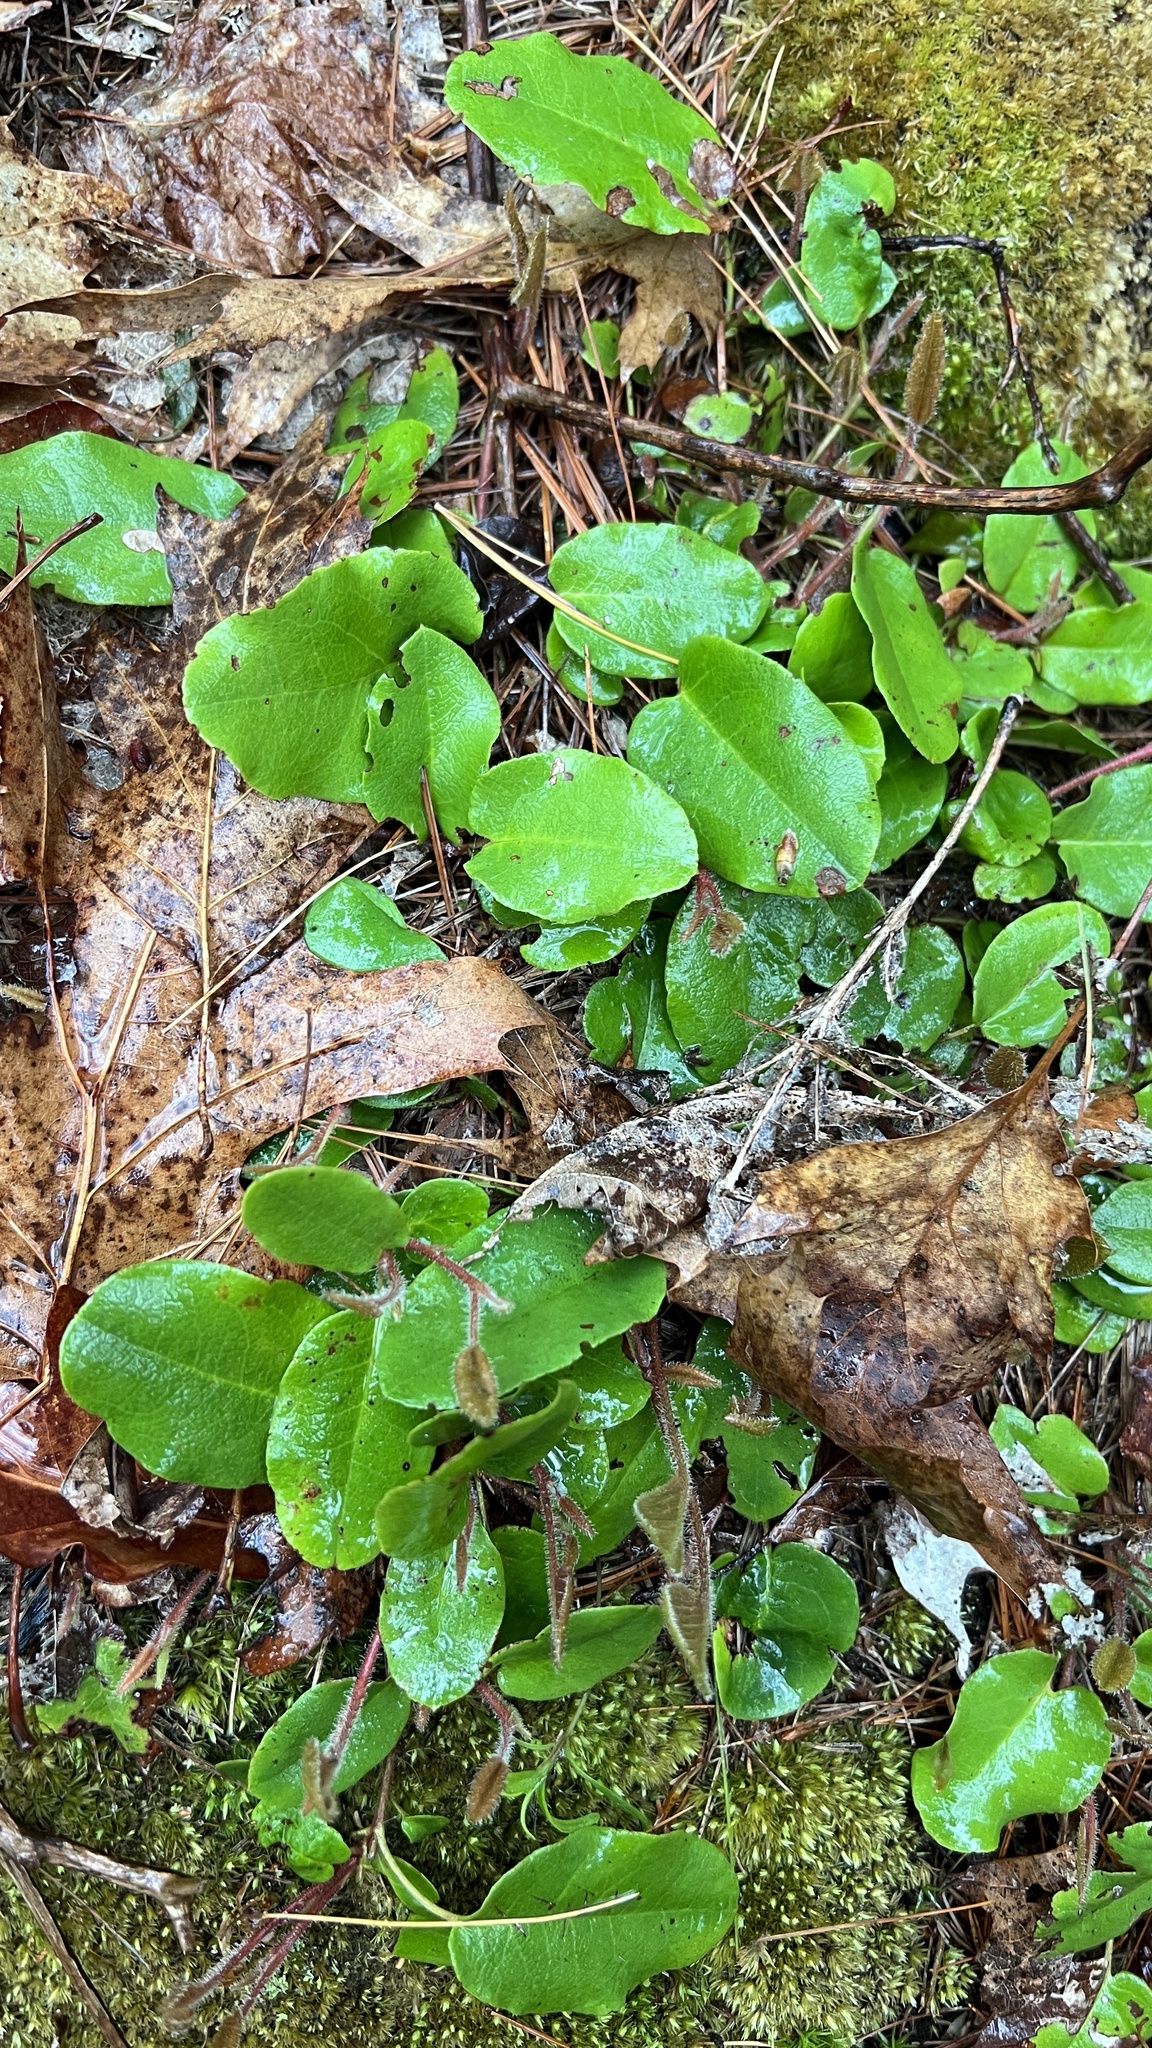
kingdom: Plantae
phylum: Tracheophyta
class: Magnoliopsida
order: Ericales
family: Ericaceae
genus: Epigaea
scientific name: Epigaea repens
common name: Gravelroot
